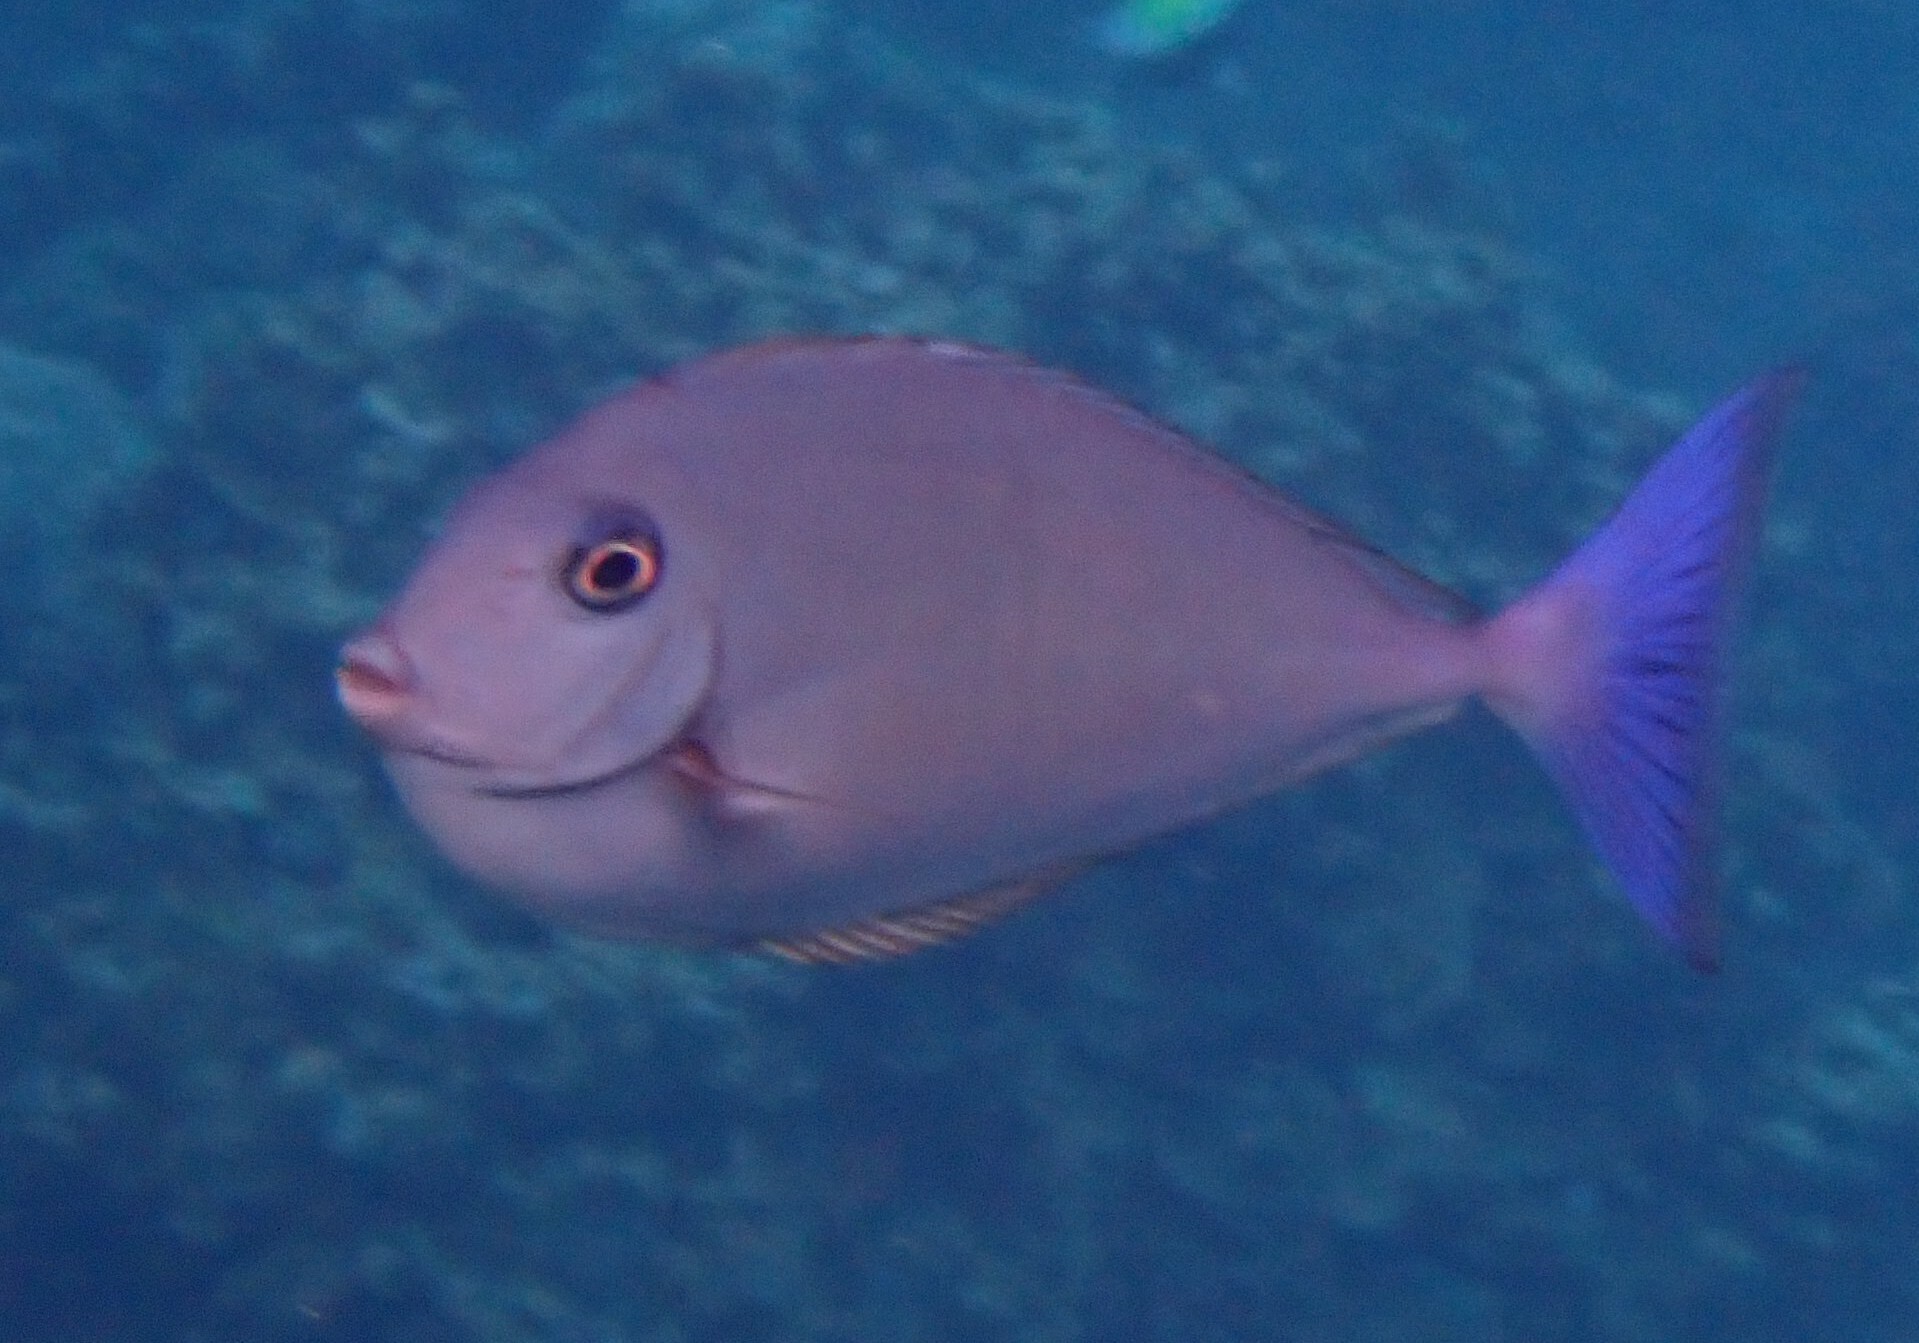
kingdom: Animalia
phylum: Chordata
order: Perciformes
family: Acanthuridae
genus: Naso
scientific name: Naso caeruleacauda
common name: Bluetail unicornfish
